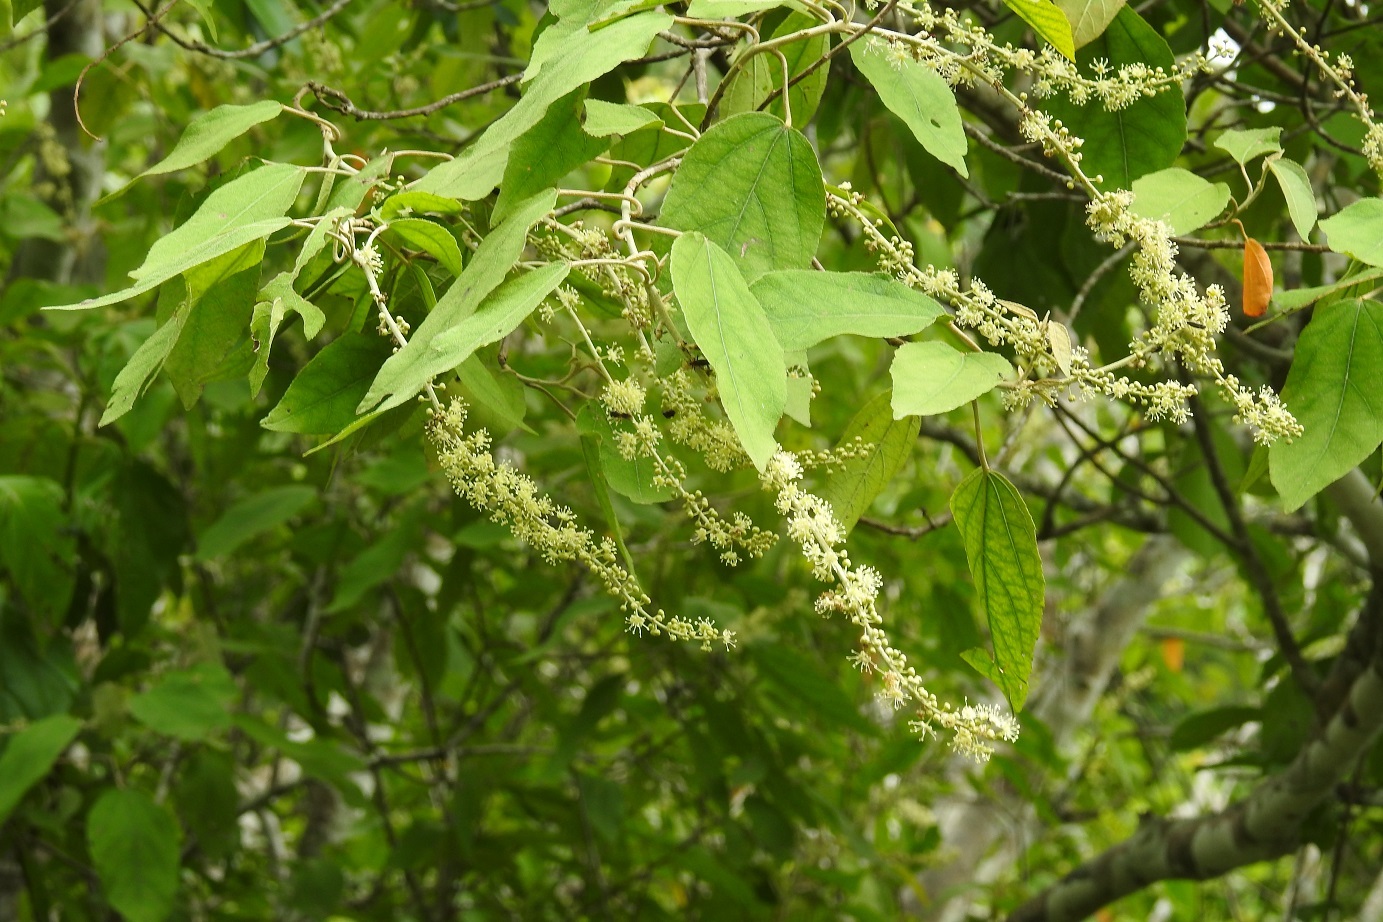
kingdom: Plantae
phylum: Tracheophyta
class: Magnoliopsida
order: Malpighiales
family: Euphorbiaceae
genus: Croton
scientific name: Croton mexicanus
